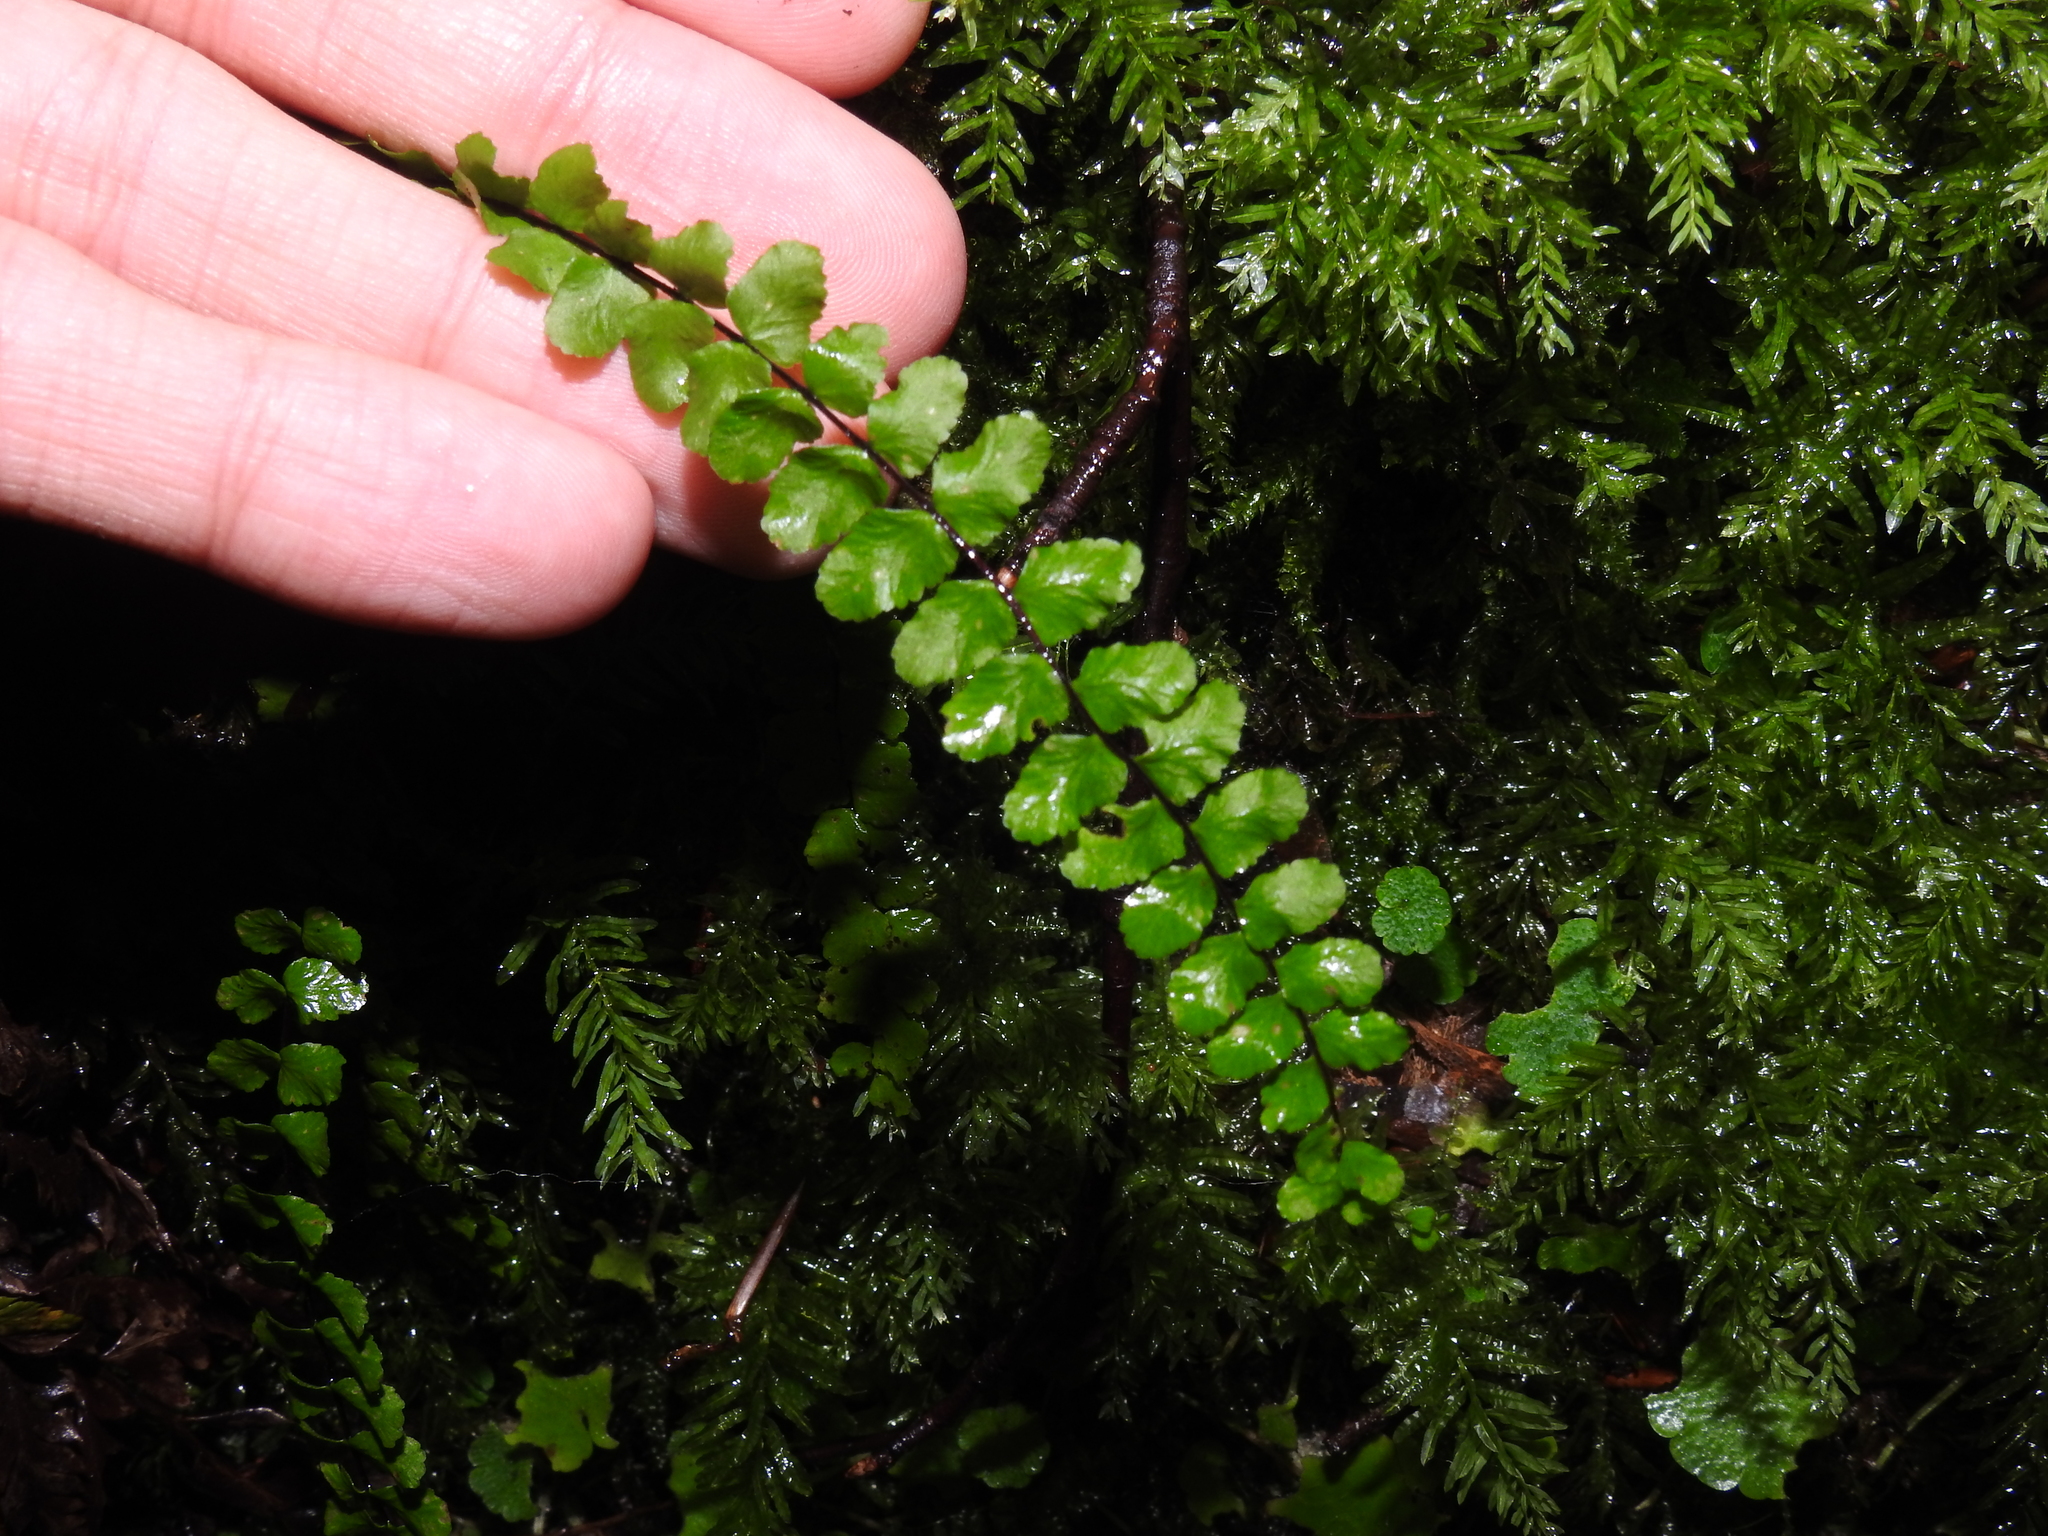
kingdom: Plantae
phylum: Tracheophyta
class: Polypodiopsida
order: Polypodiales
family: Aspleniaceae
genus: Asplenium
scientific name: Asplenium trichomanes
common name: Maidenhair spleenwort
